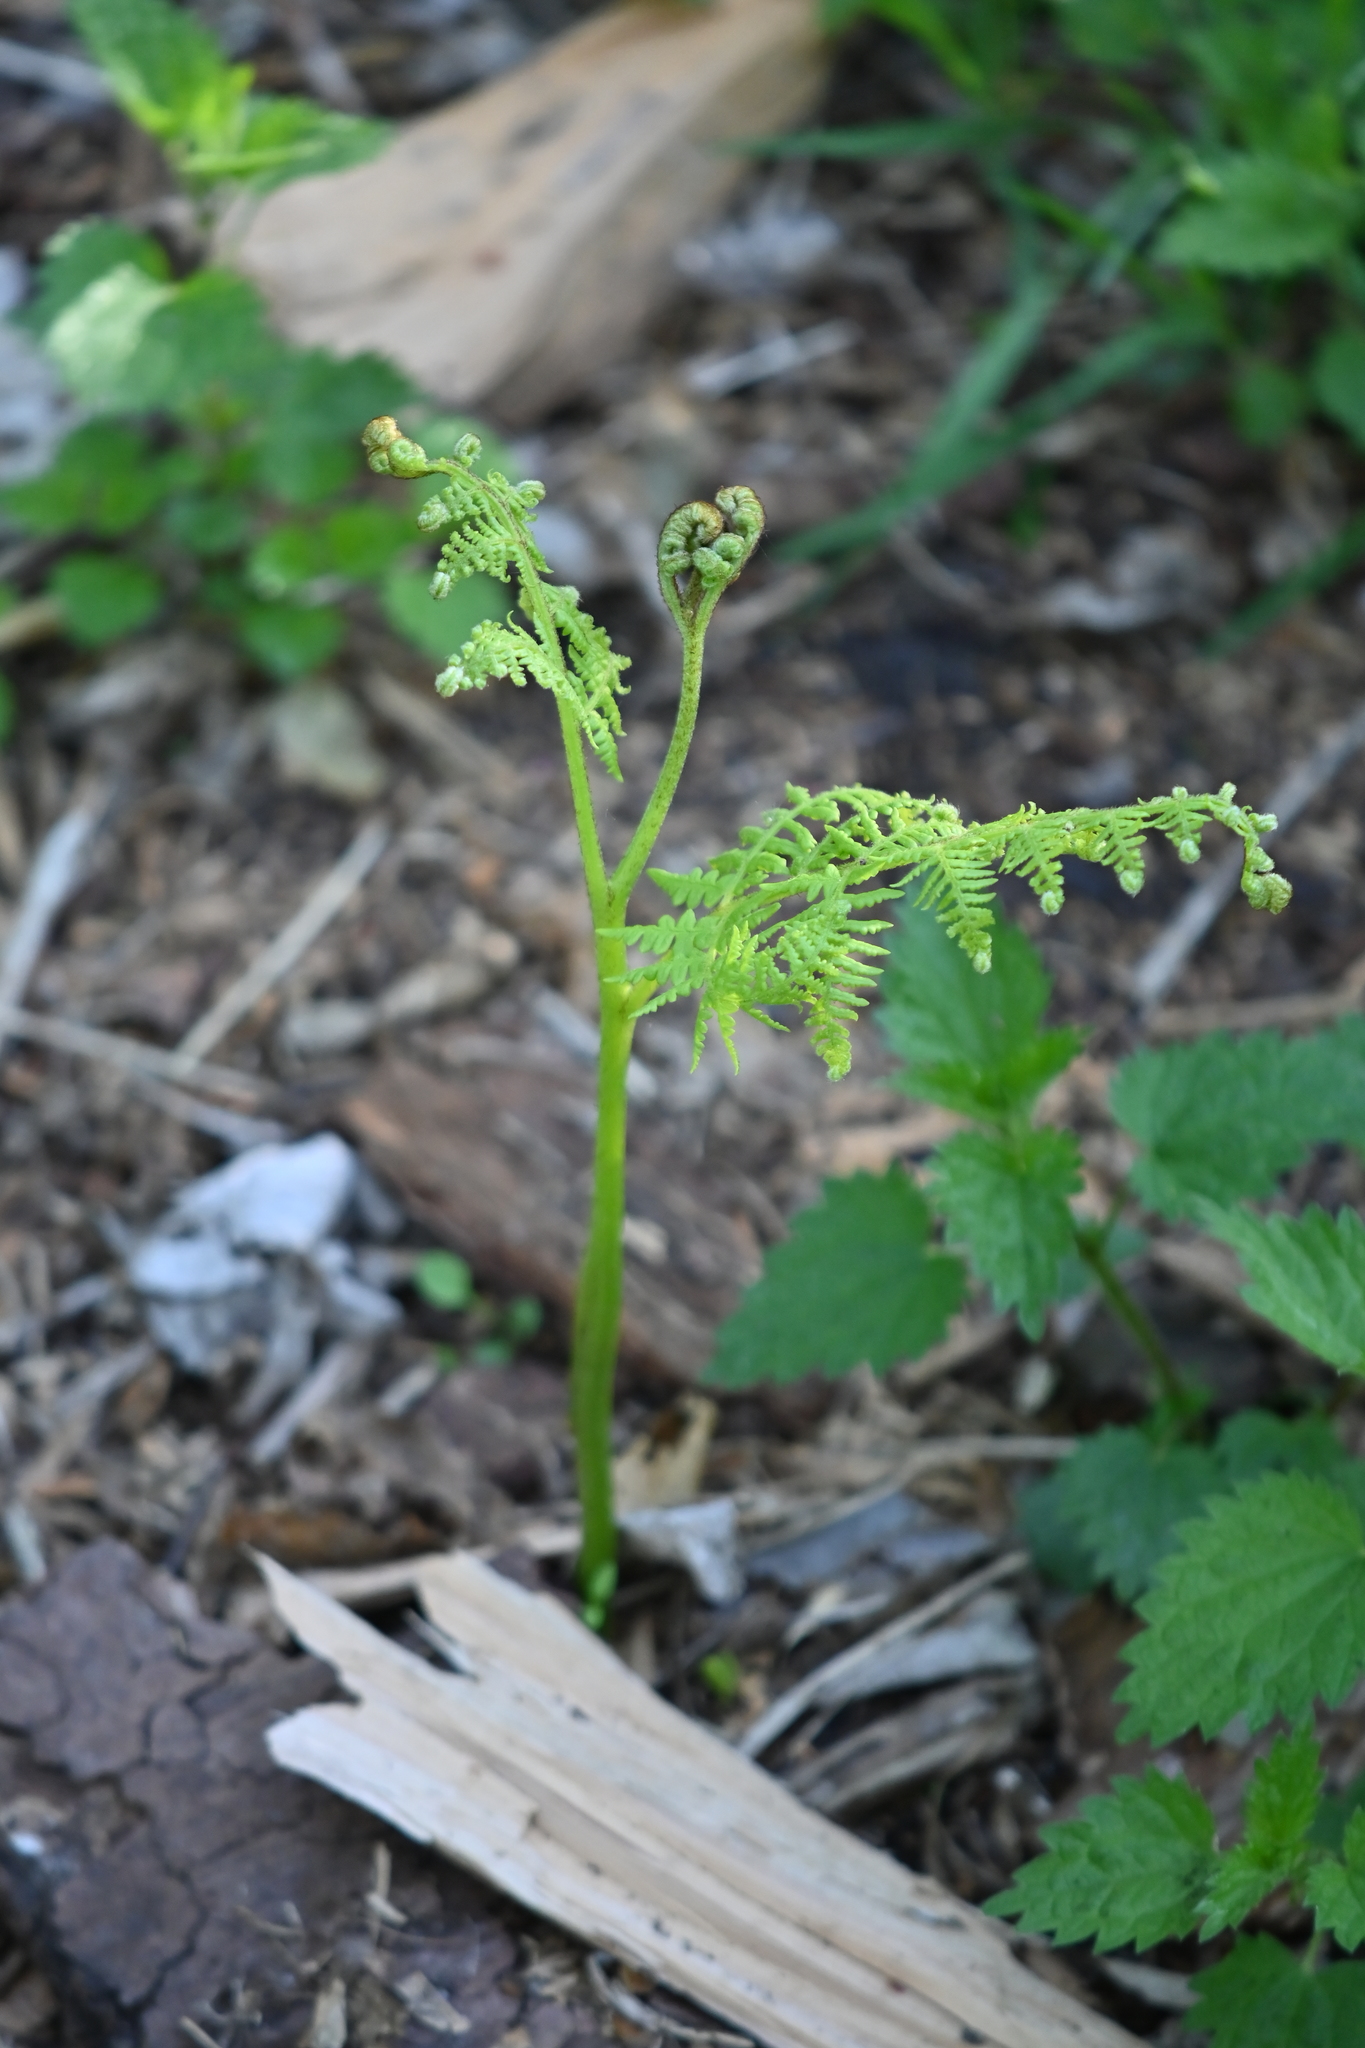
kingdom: Plantae
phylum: Tracheophyta
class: Polypodiopsida
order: Polypodiales
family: Dennstaedtiaceae
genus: Pteridium
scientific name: Pteridium aquilinum
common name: Bracken
